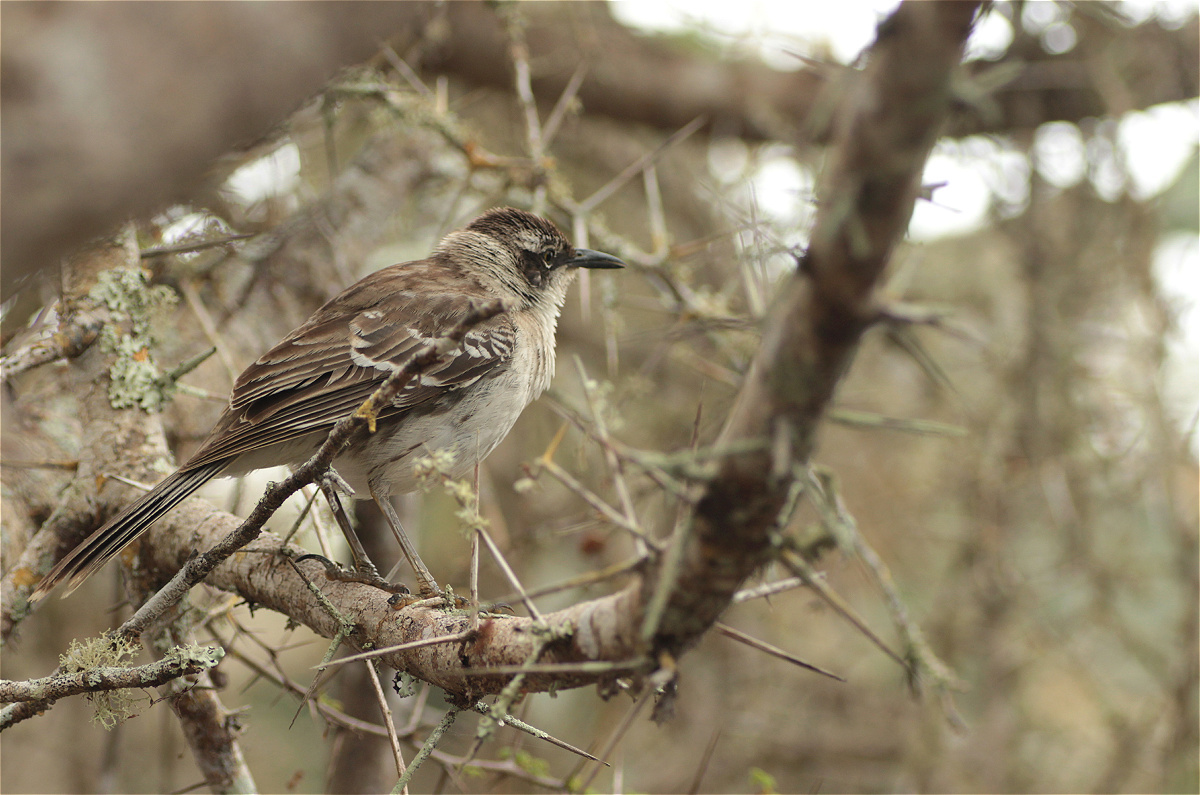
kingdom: Animalia
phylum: Chordata
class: Aves
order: Passeriformes
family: Mimidae
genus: Mimus
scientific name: Mimus parvulus
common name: Galapagos mockingbird
